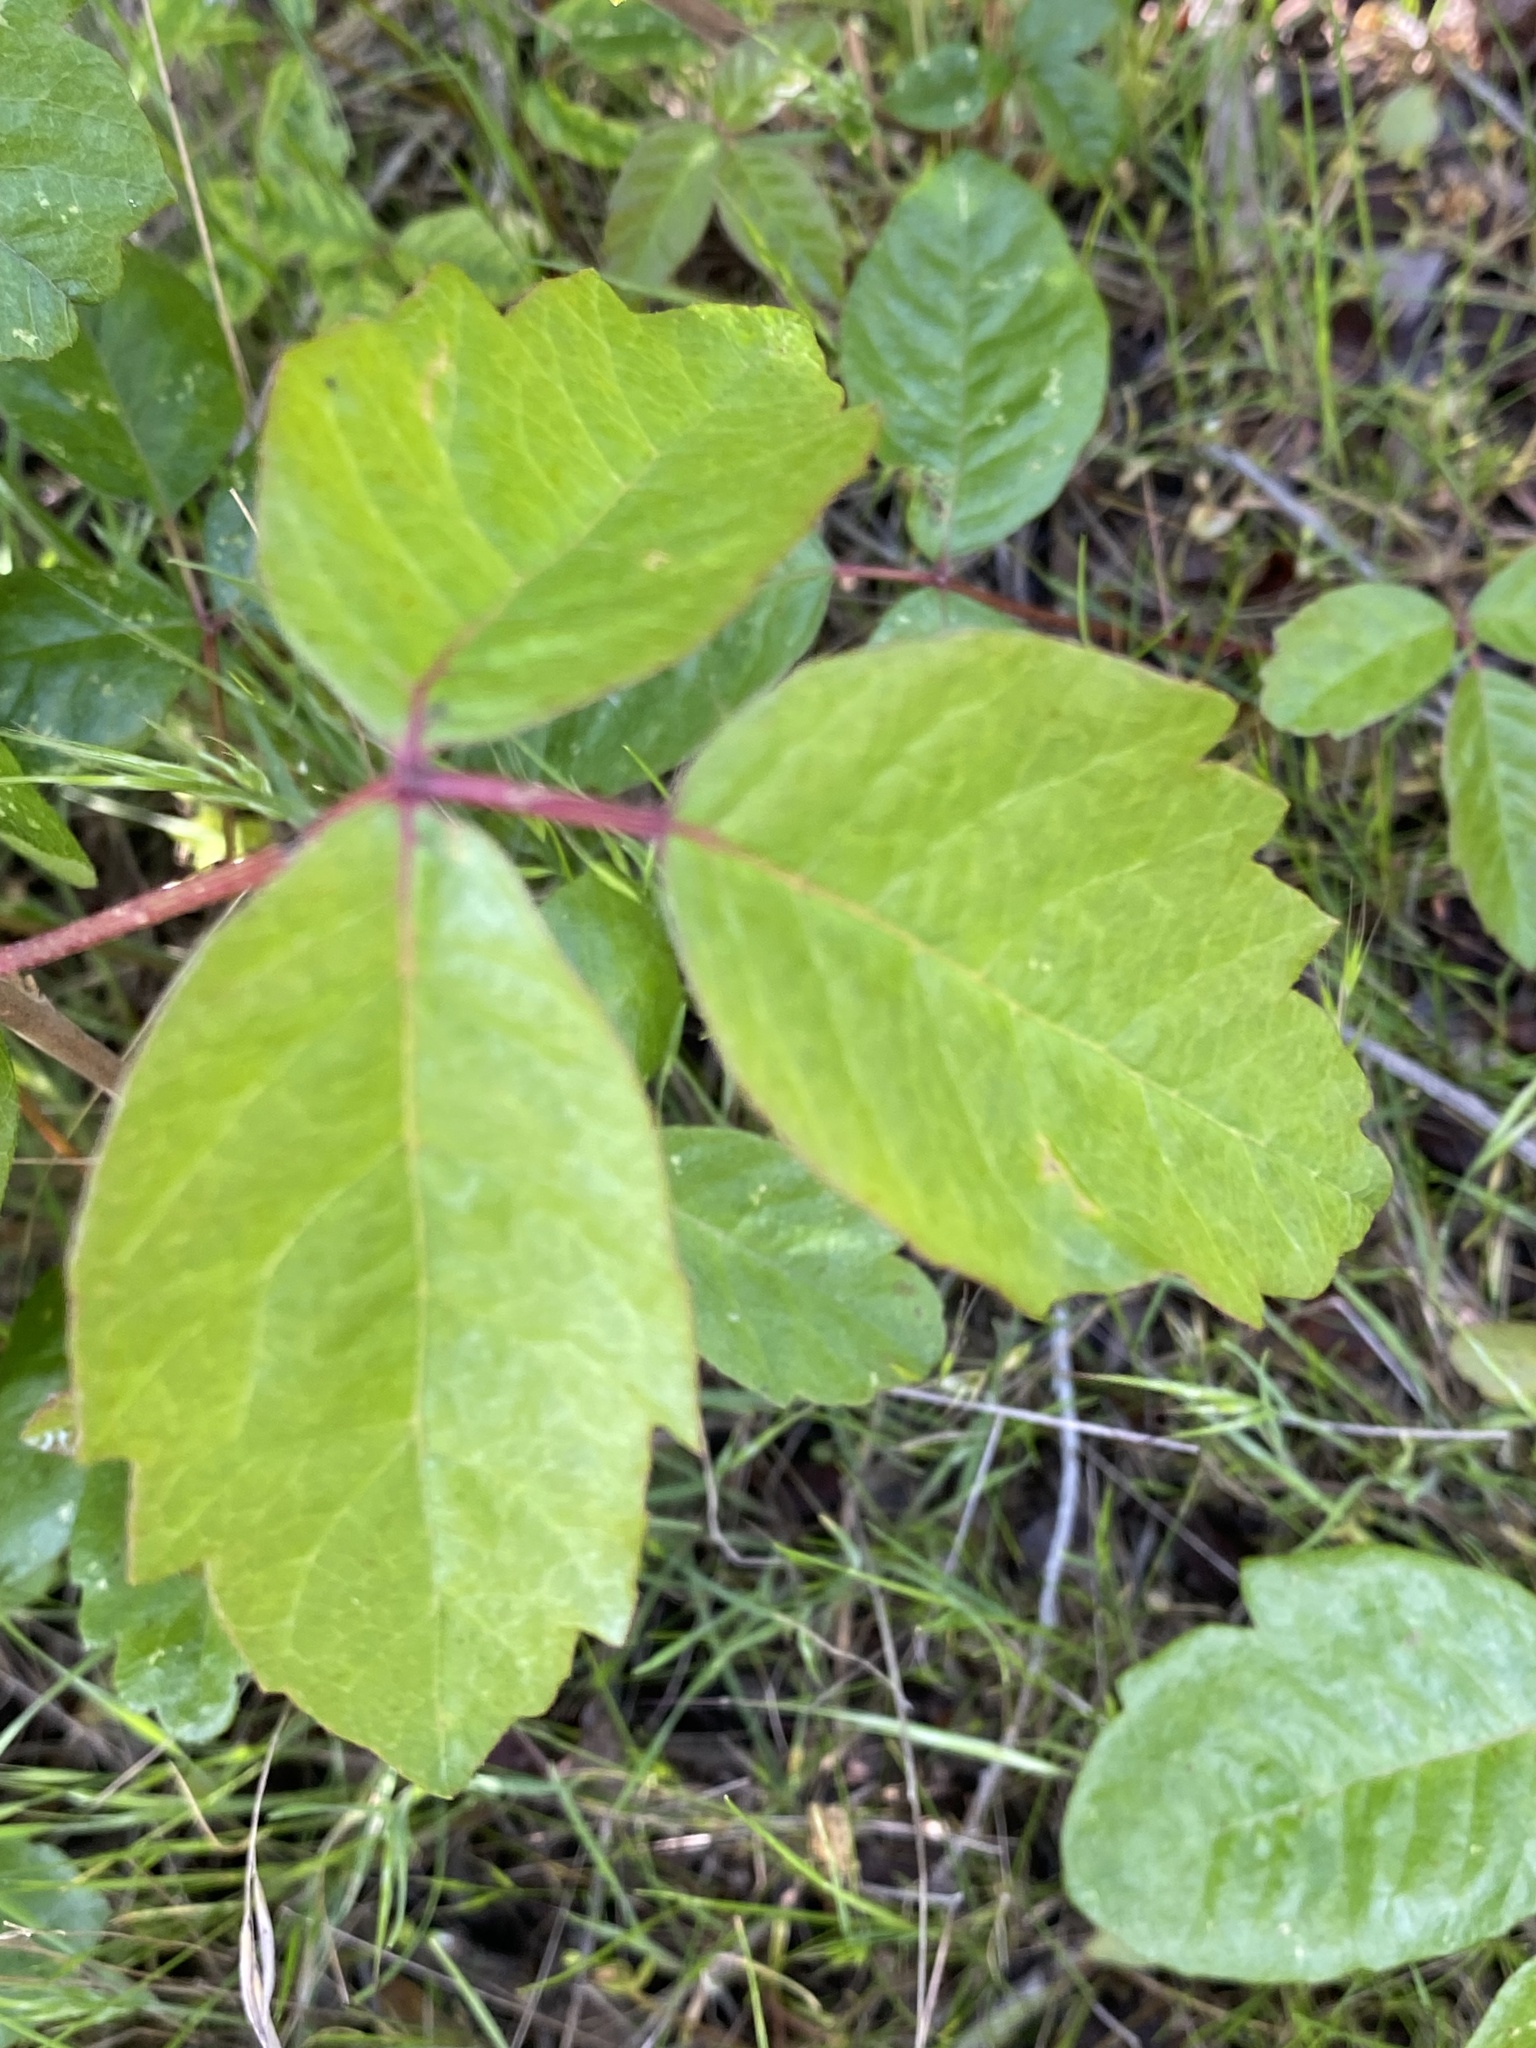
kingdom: Plantae
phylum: Tracheophyta
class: Magnoliopsida
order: Sapindales
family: Anacardiaceae
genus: Toxicodendron
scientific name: Toxicodendron diversilobum
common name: Pacific poison-oak
